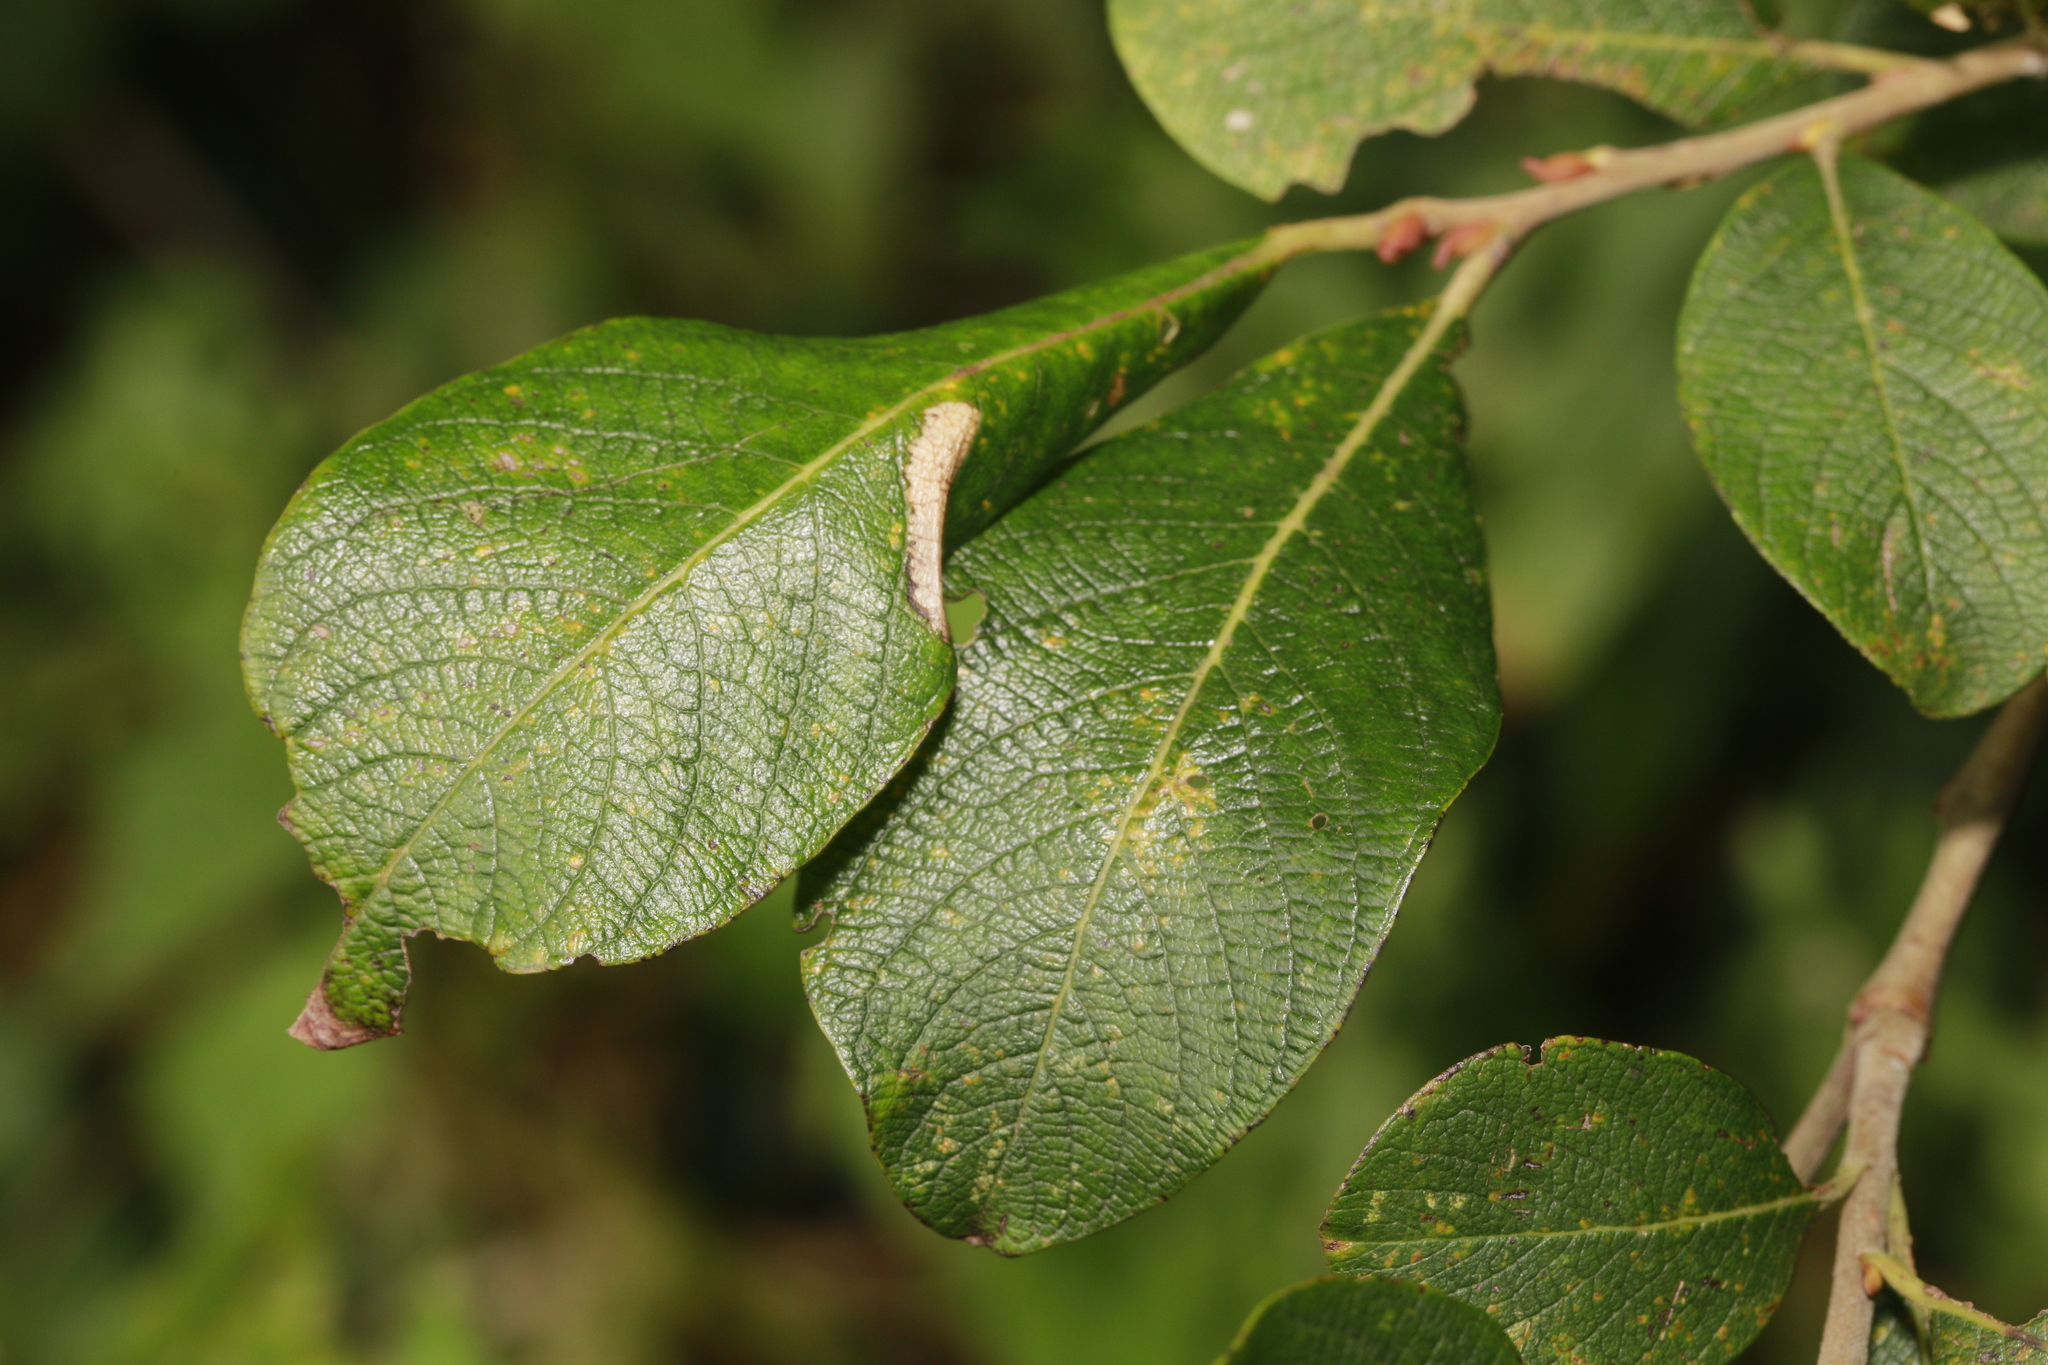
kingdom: Animalia
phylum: Arthropoda
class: Insecta
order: Lepidoptera
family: Gracillariidae
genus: Phyllonorycter
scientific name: Phyllonorycter salicicolella
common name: Long-streak midget
